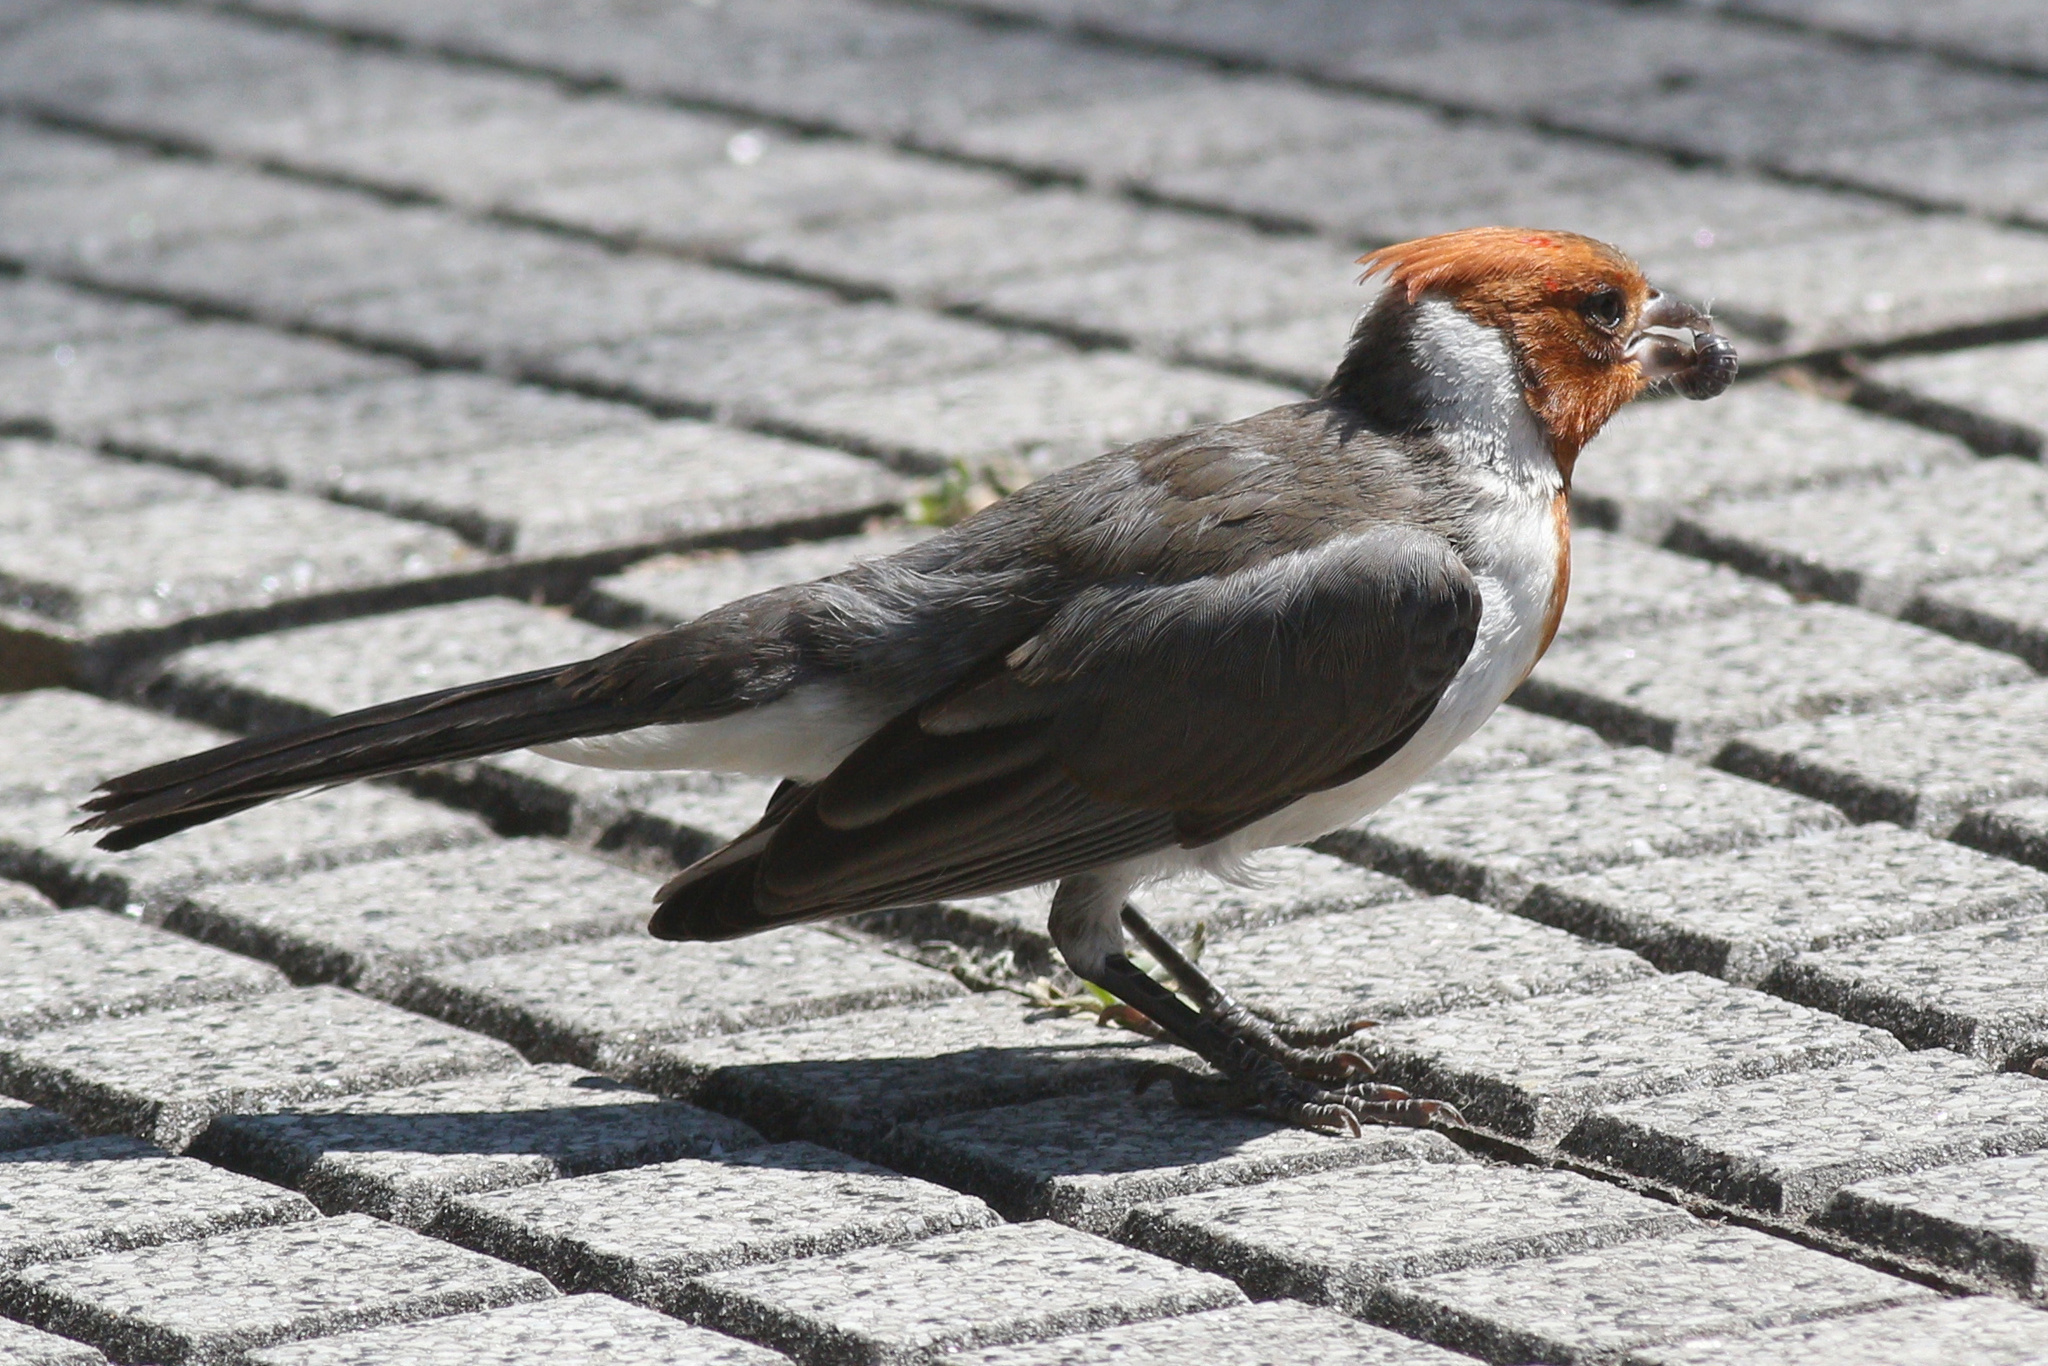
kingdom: Animalia
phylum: Chordata
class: Aves
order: Passeriformes
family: Thraupidae
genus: Paroaria
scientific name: Paroaria coronata
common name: Red-crested cardinal
